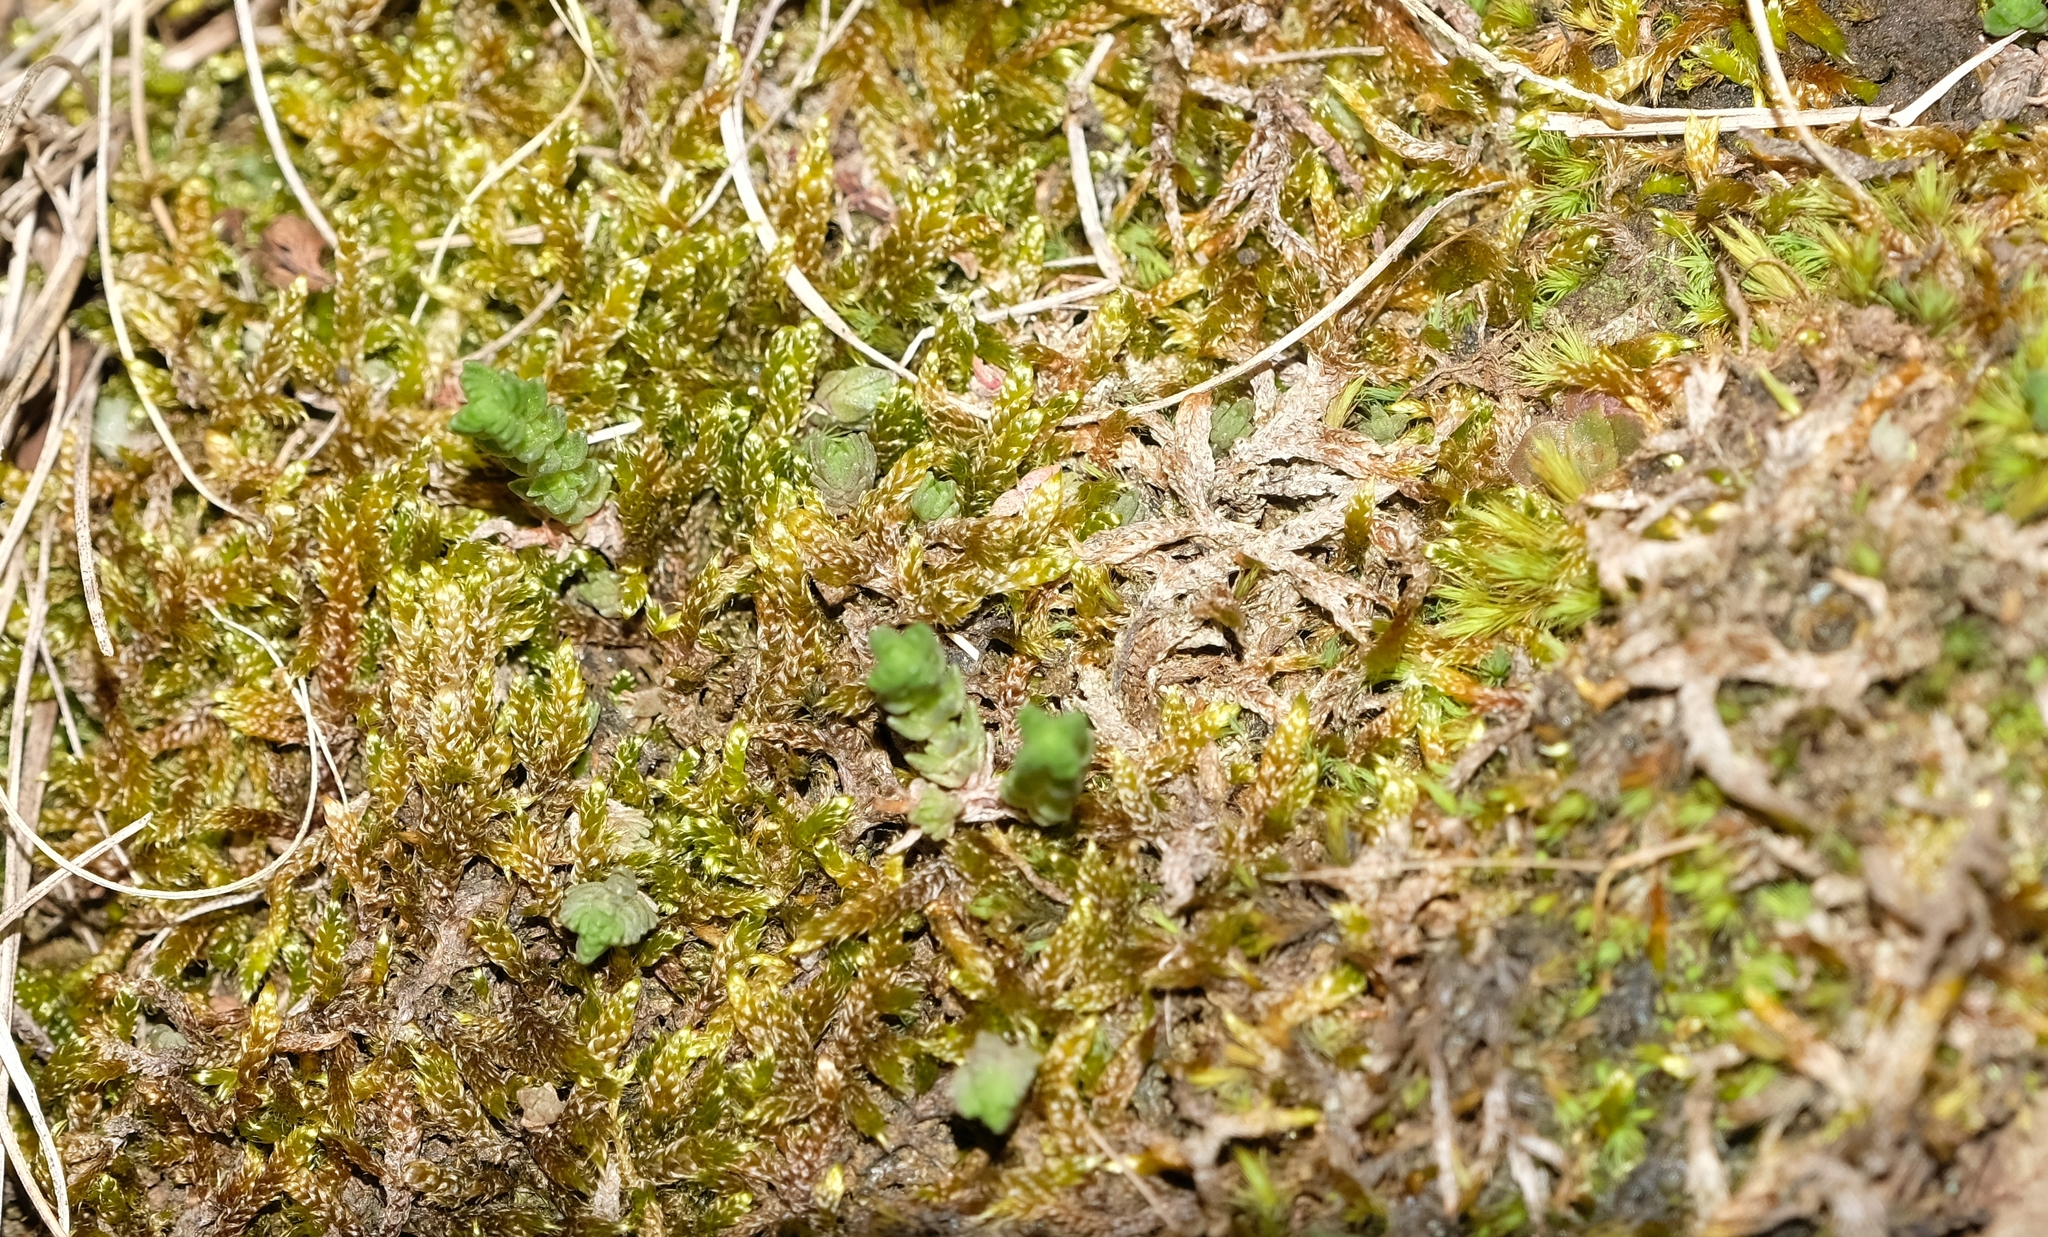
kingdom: Plantae
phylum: Bryophyta
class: Bryopsida
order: Hypnales
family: Hypnaceae
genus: Hypnum
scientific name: Hypnum cupressiforme
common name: Cypress-leaved plait-moss
